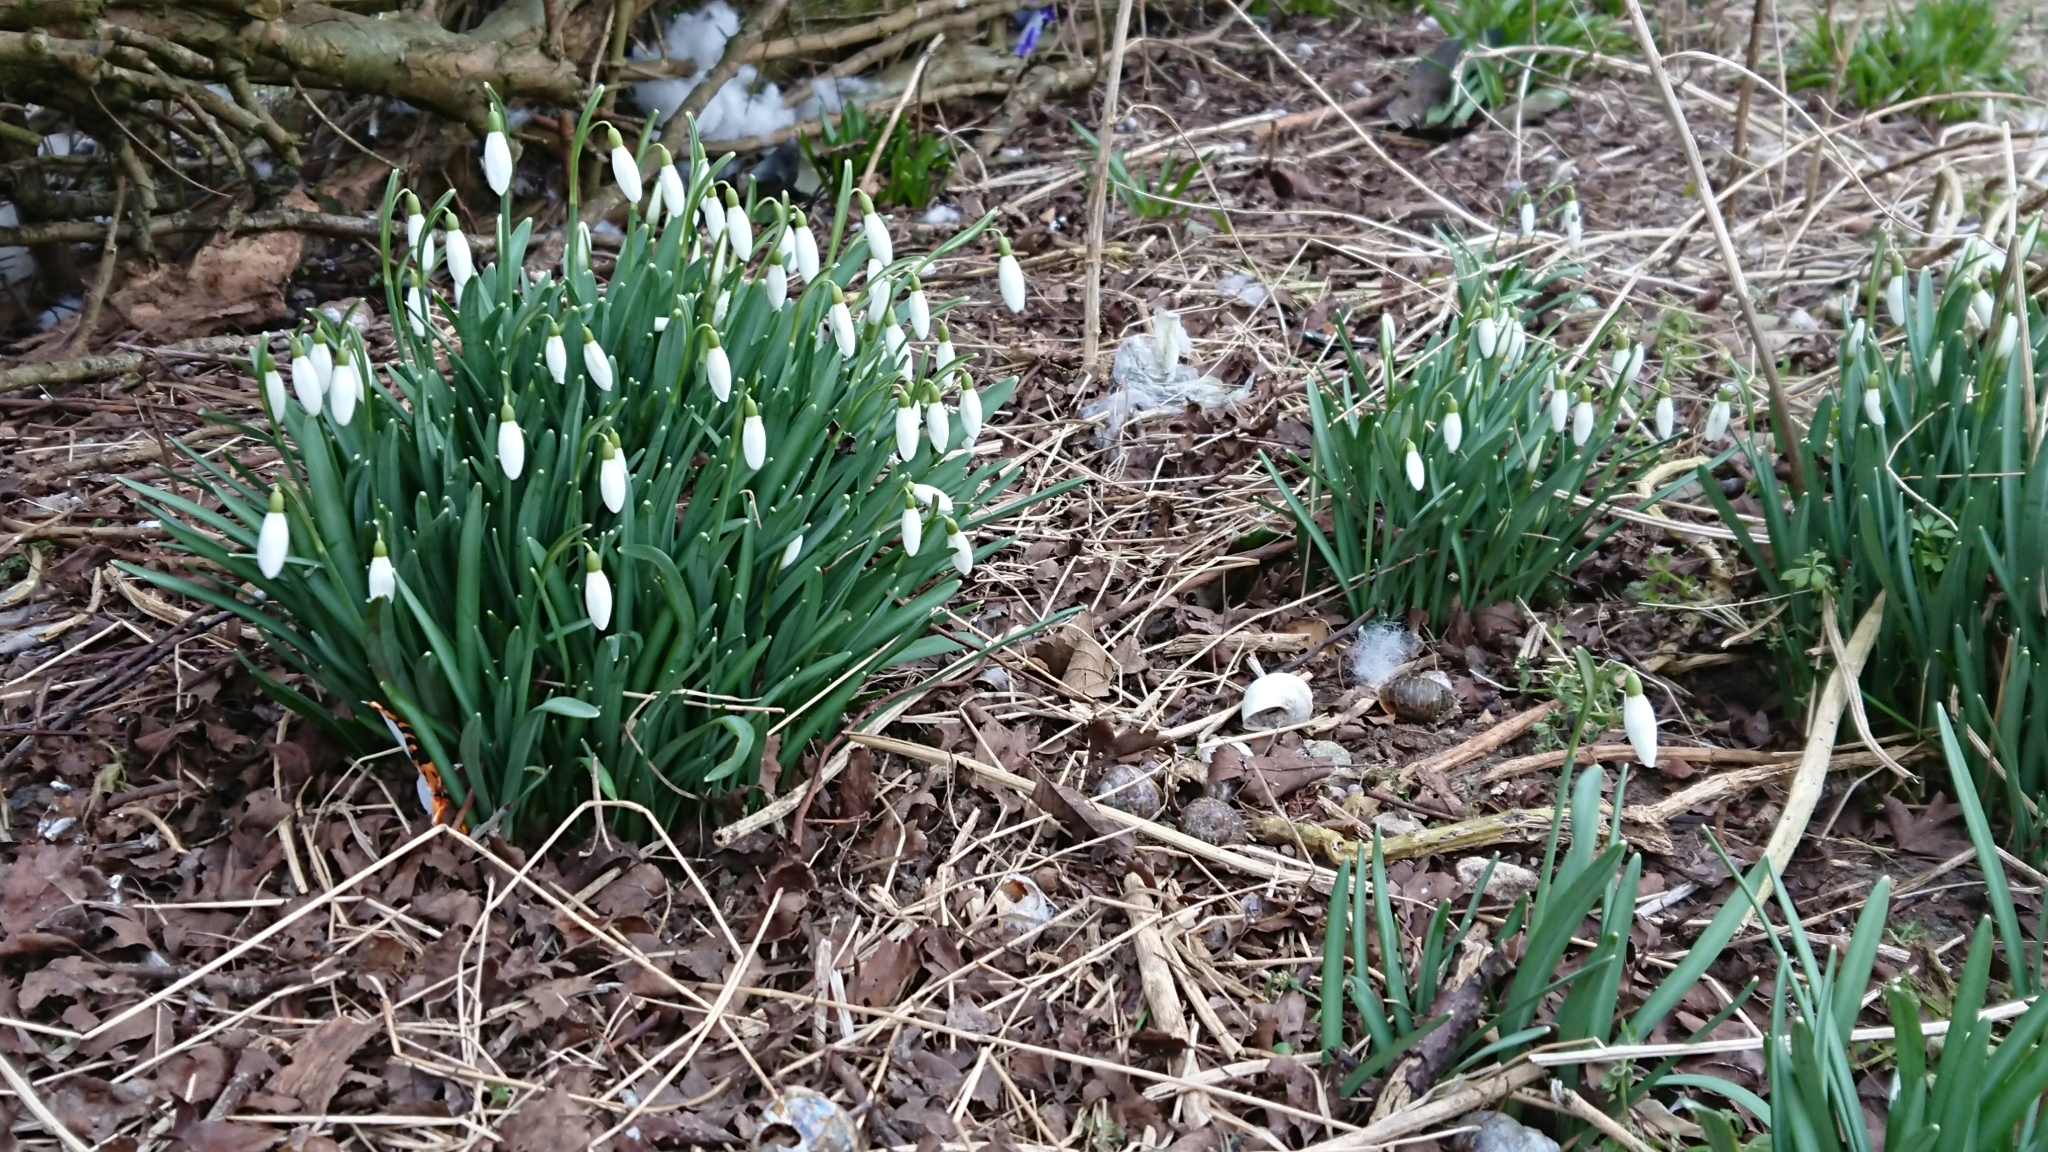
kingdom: Plantae
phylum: Tracheophyta
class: Liliopsida
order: Asparagales
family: Amaryllidaceae
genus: Galanthus
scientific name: Galanthus nivalis
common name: Snowdrop
